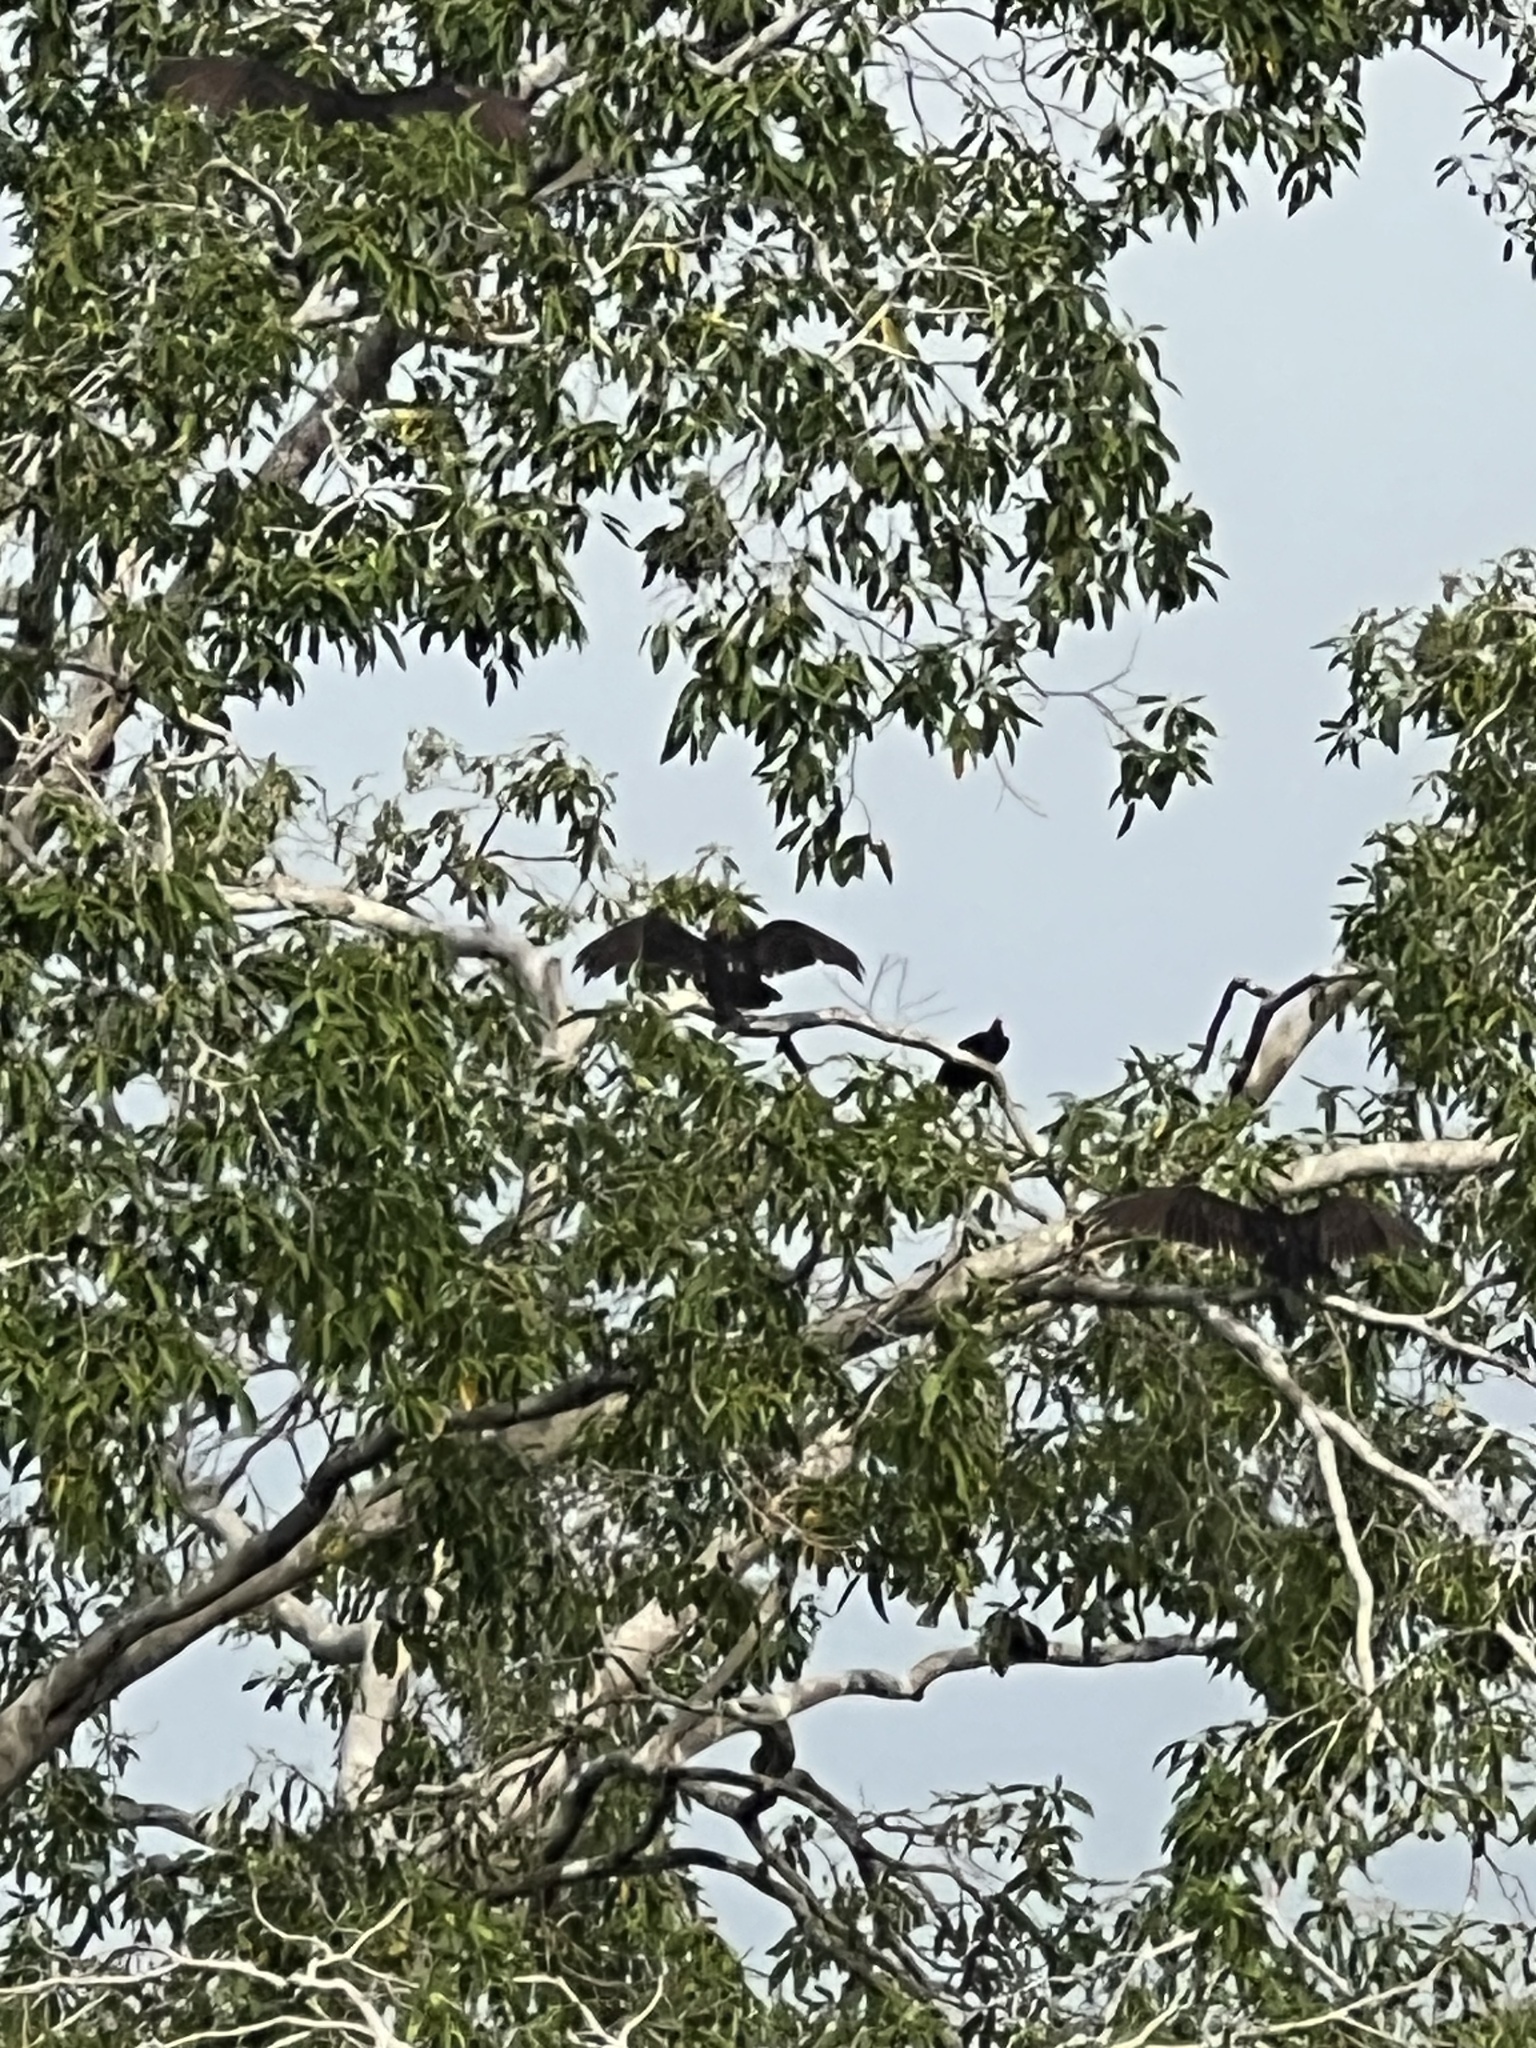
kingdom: Animalia
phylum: Chordata
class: Aves
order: Accipitriformes
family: Cathartidae
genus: Coragyps
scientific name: Coragyps atratus
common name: Black vulture
